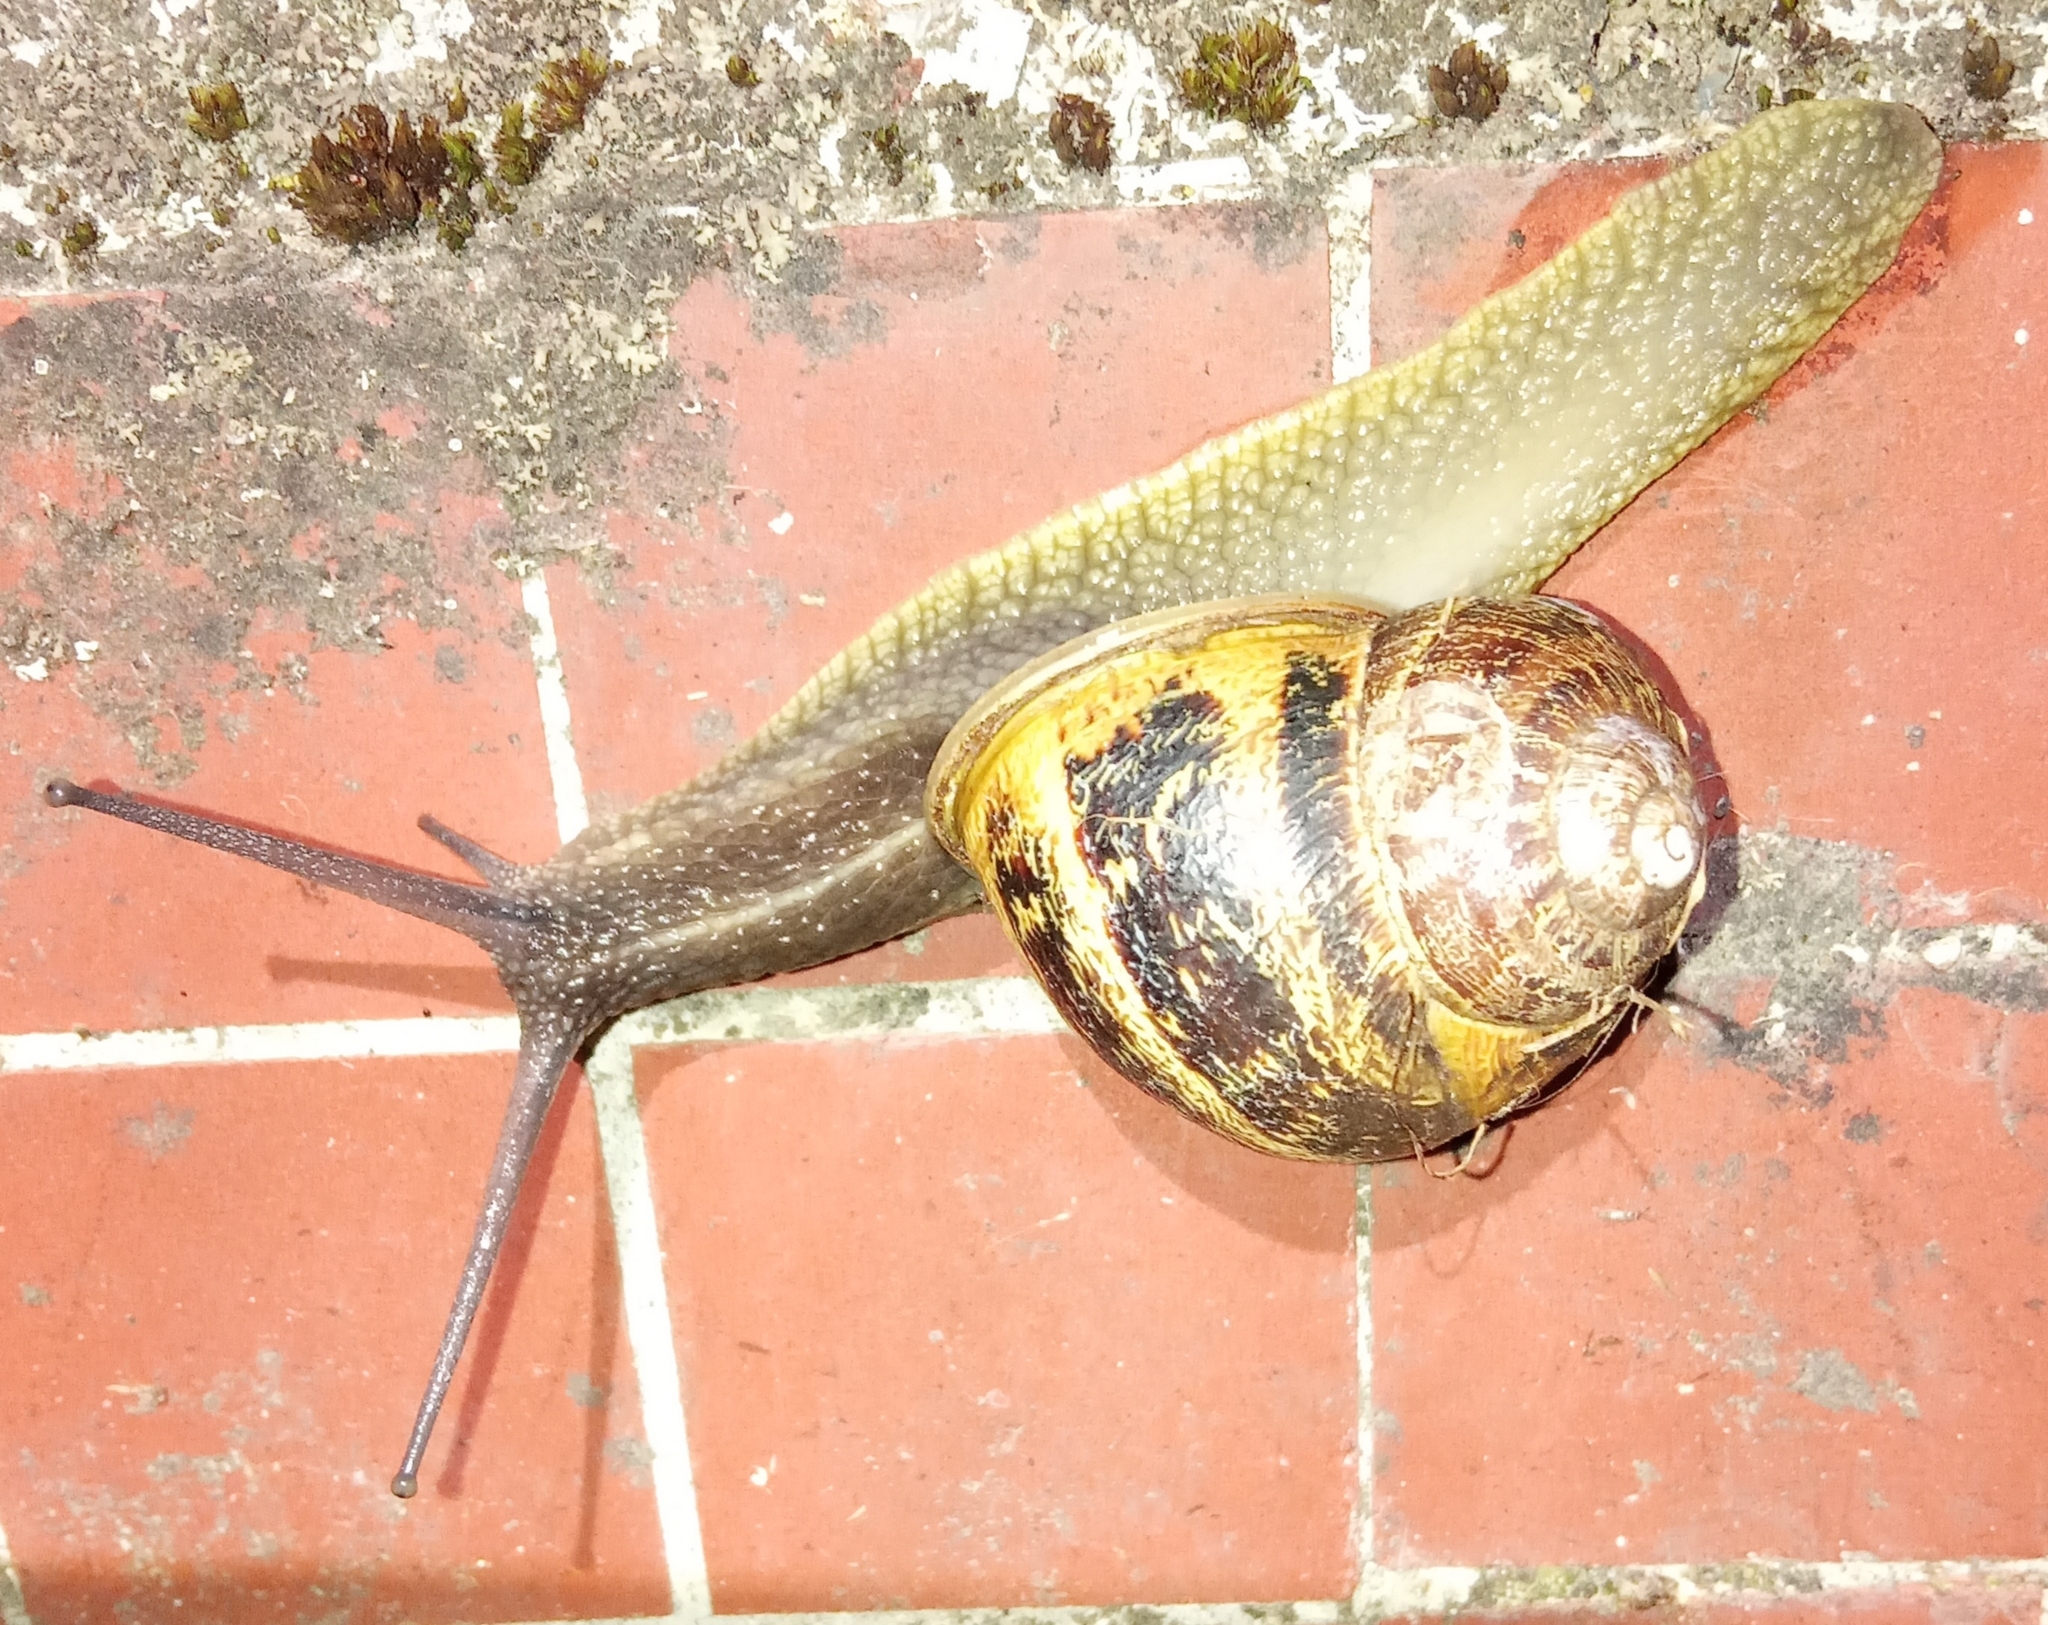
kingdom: Animalia
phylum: Mollusca
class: Gastropoda
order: Stylommatophora
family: Helicidae
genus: Cornu
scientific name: Cornu aspersum
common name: Brown garden snail
